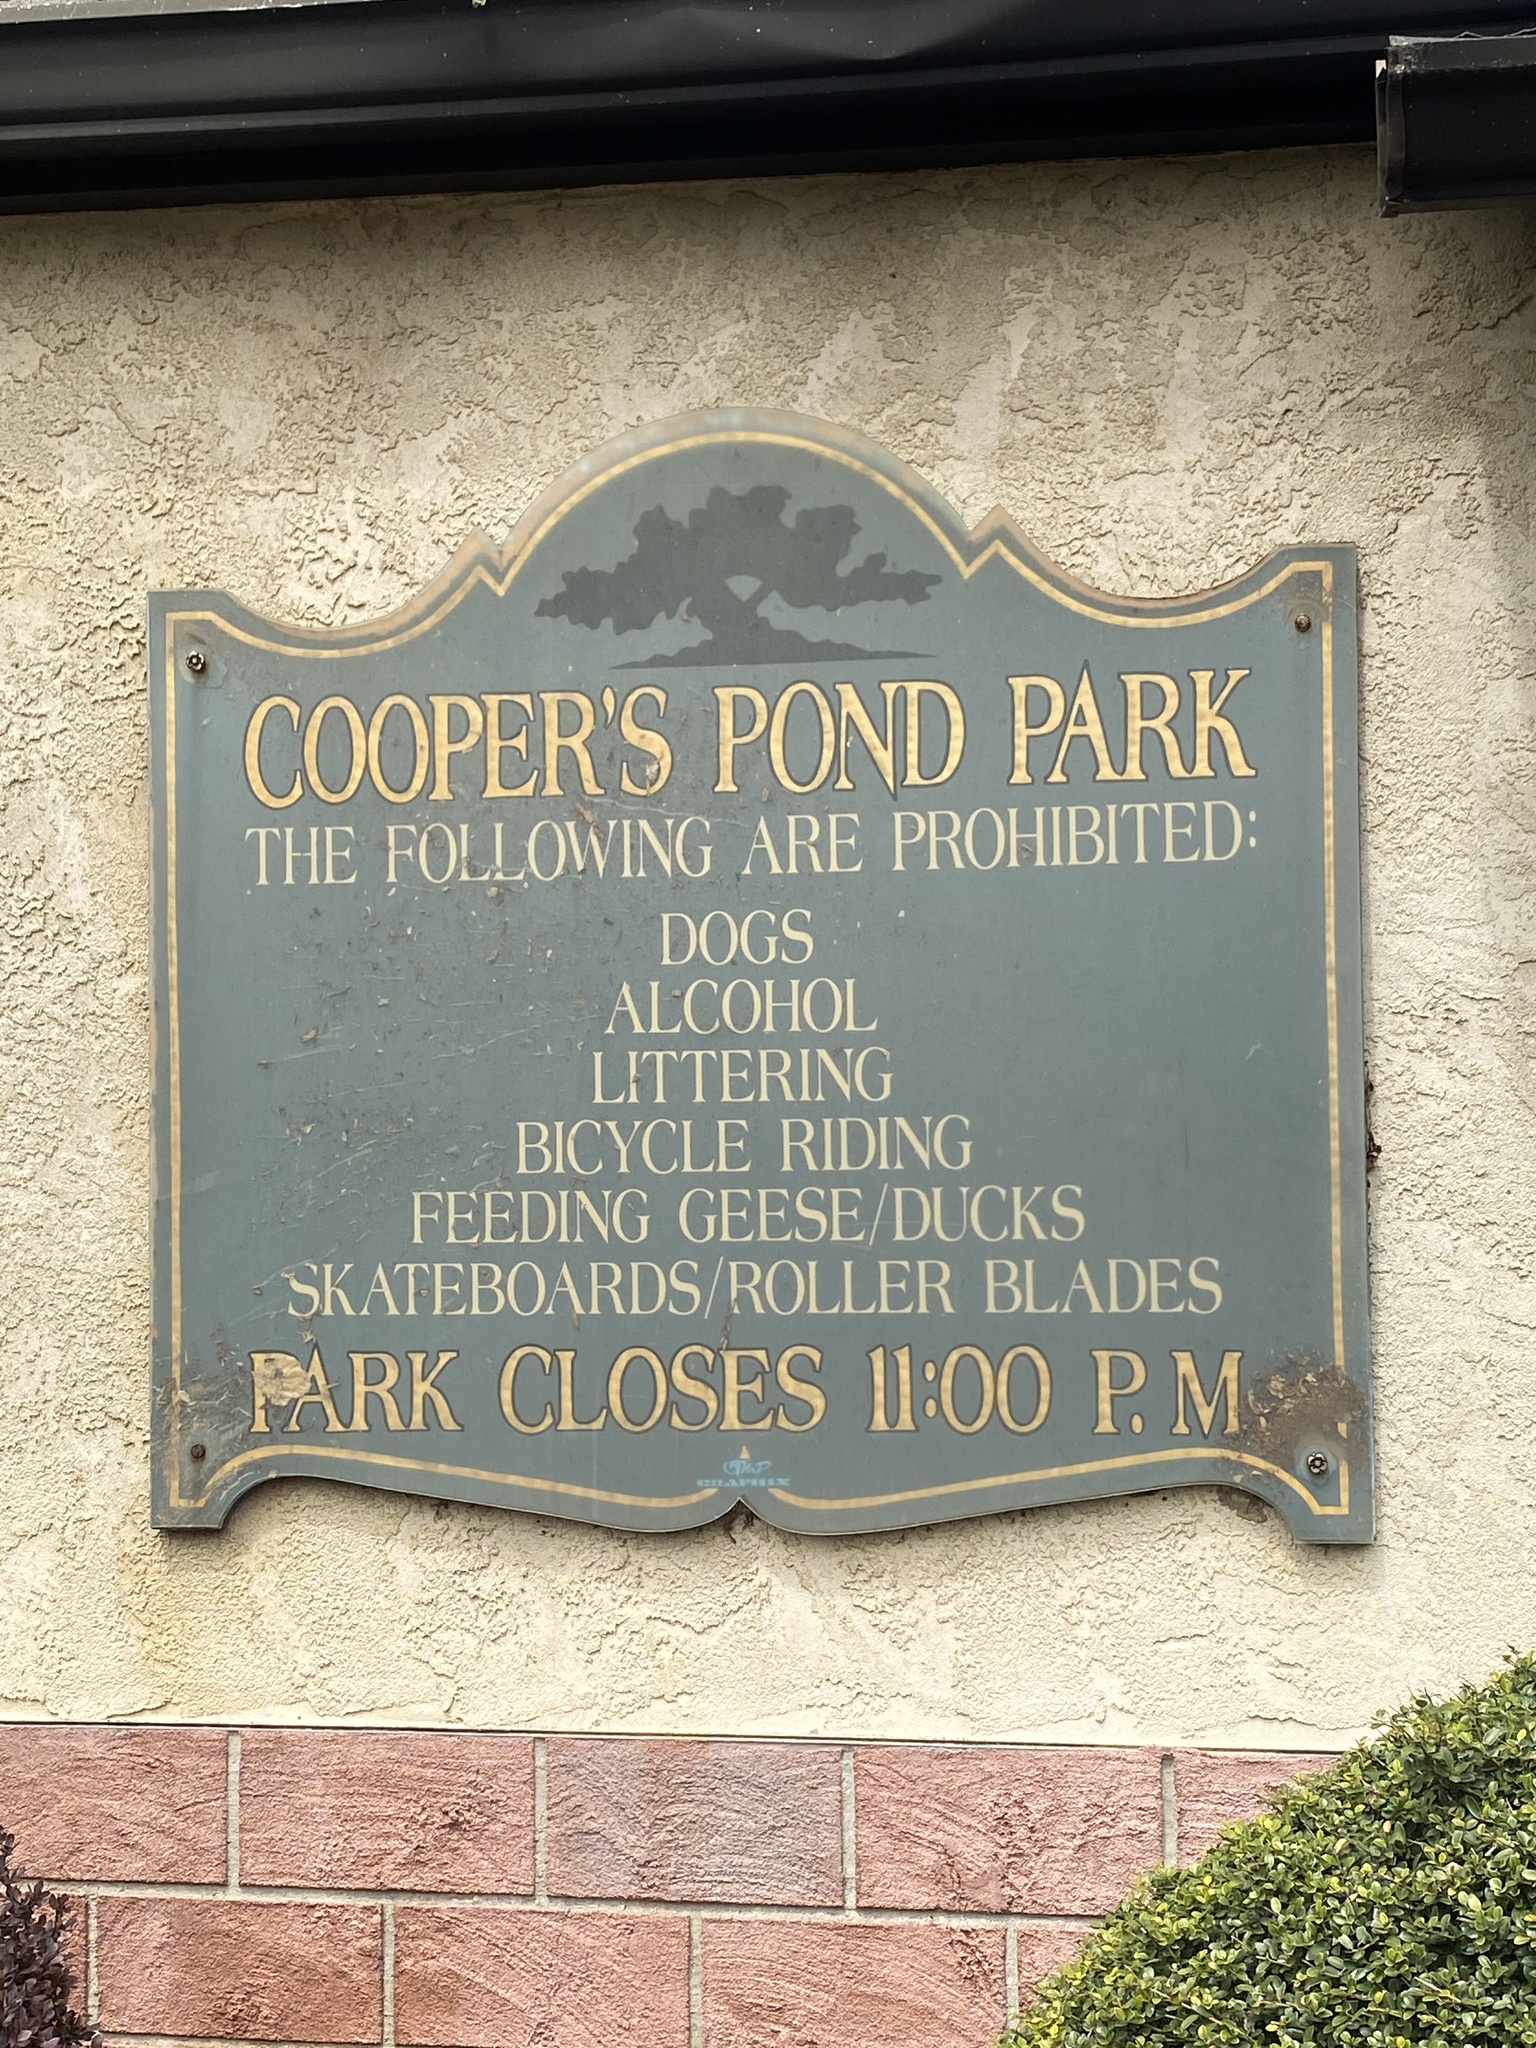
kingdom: Plantae
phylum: Tracheophyta
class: Magnoliopsida
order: Lamiales
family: Mazaceae
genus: Mazus
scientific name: Mazus pumilus
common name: Japanese mazus
